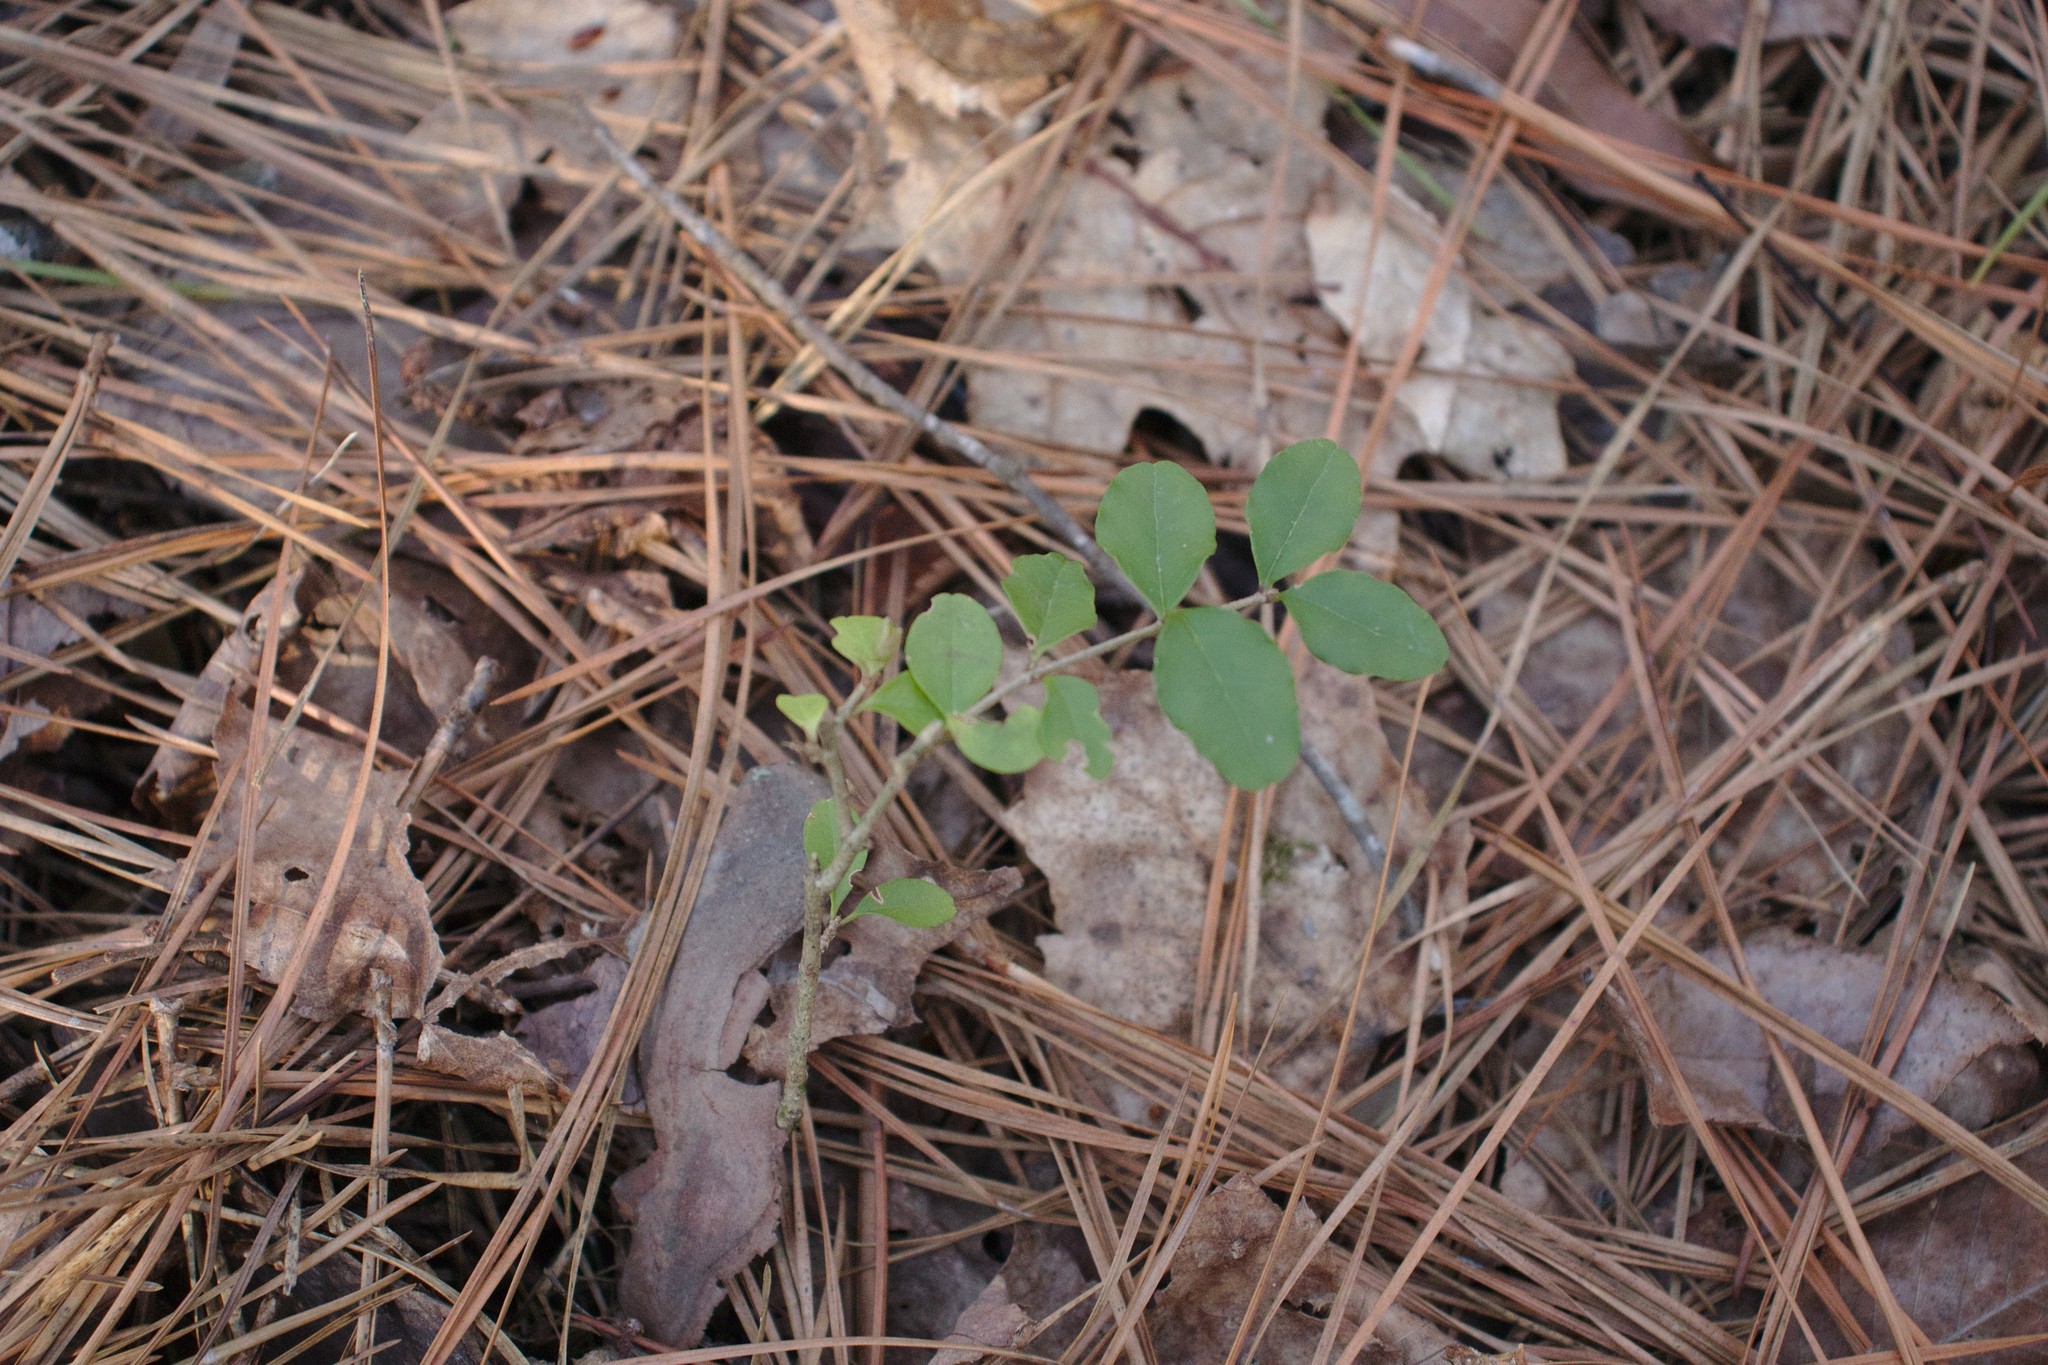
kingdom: Plantae
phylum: Tracheophyta
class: Magnoliopsida
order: Lamiales
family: Oleaceae
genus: Ligustrum
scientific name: Ligustrum sinense
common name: Chinese privet
